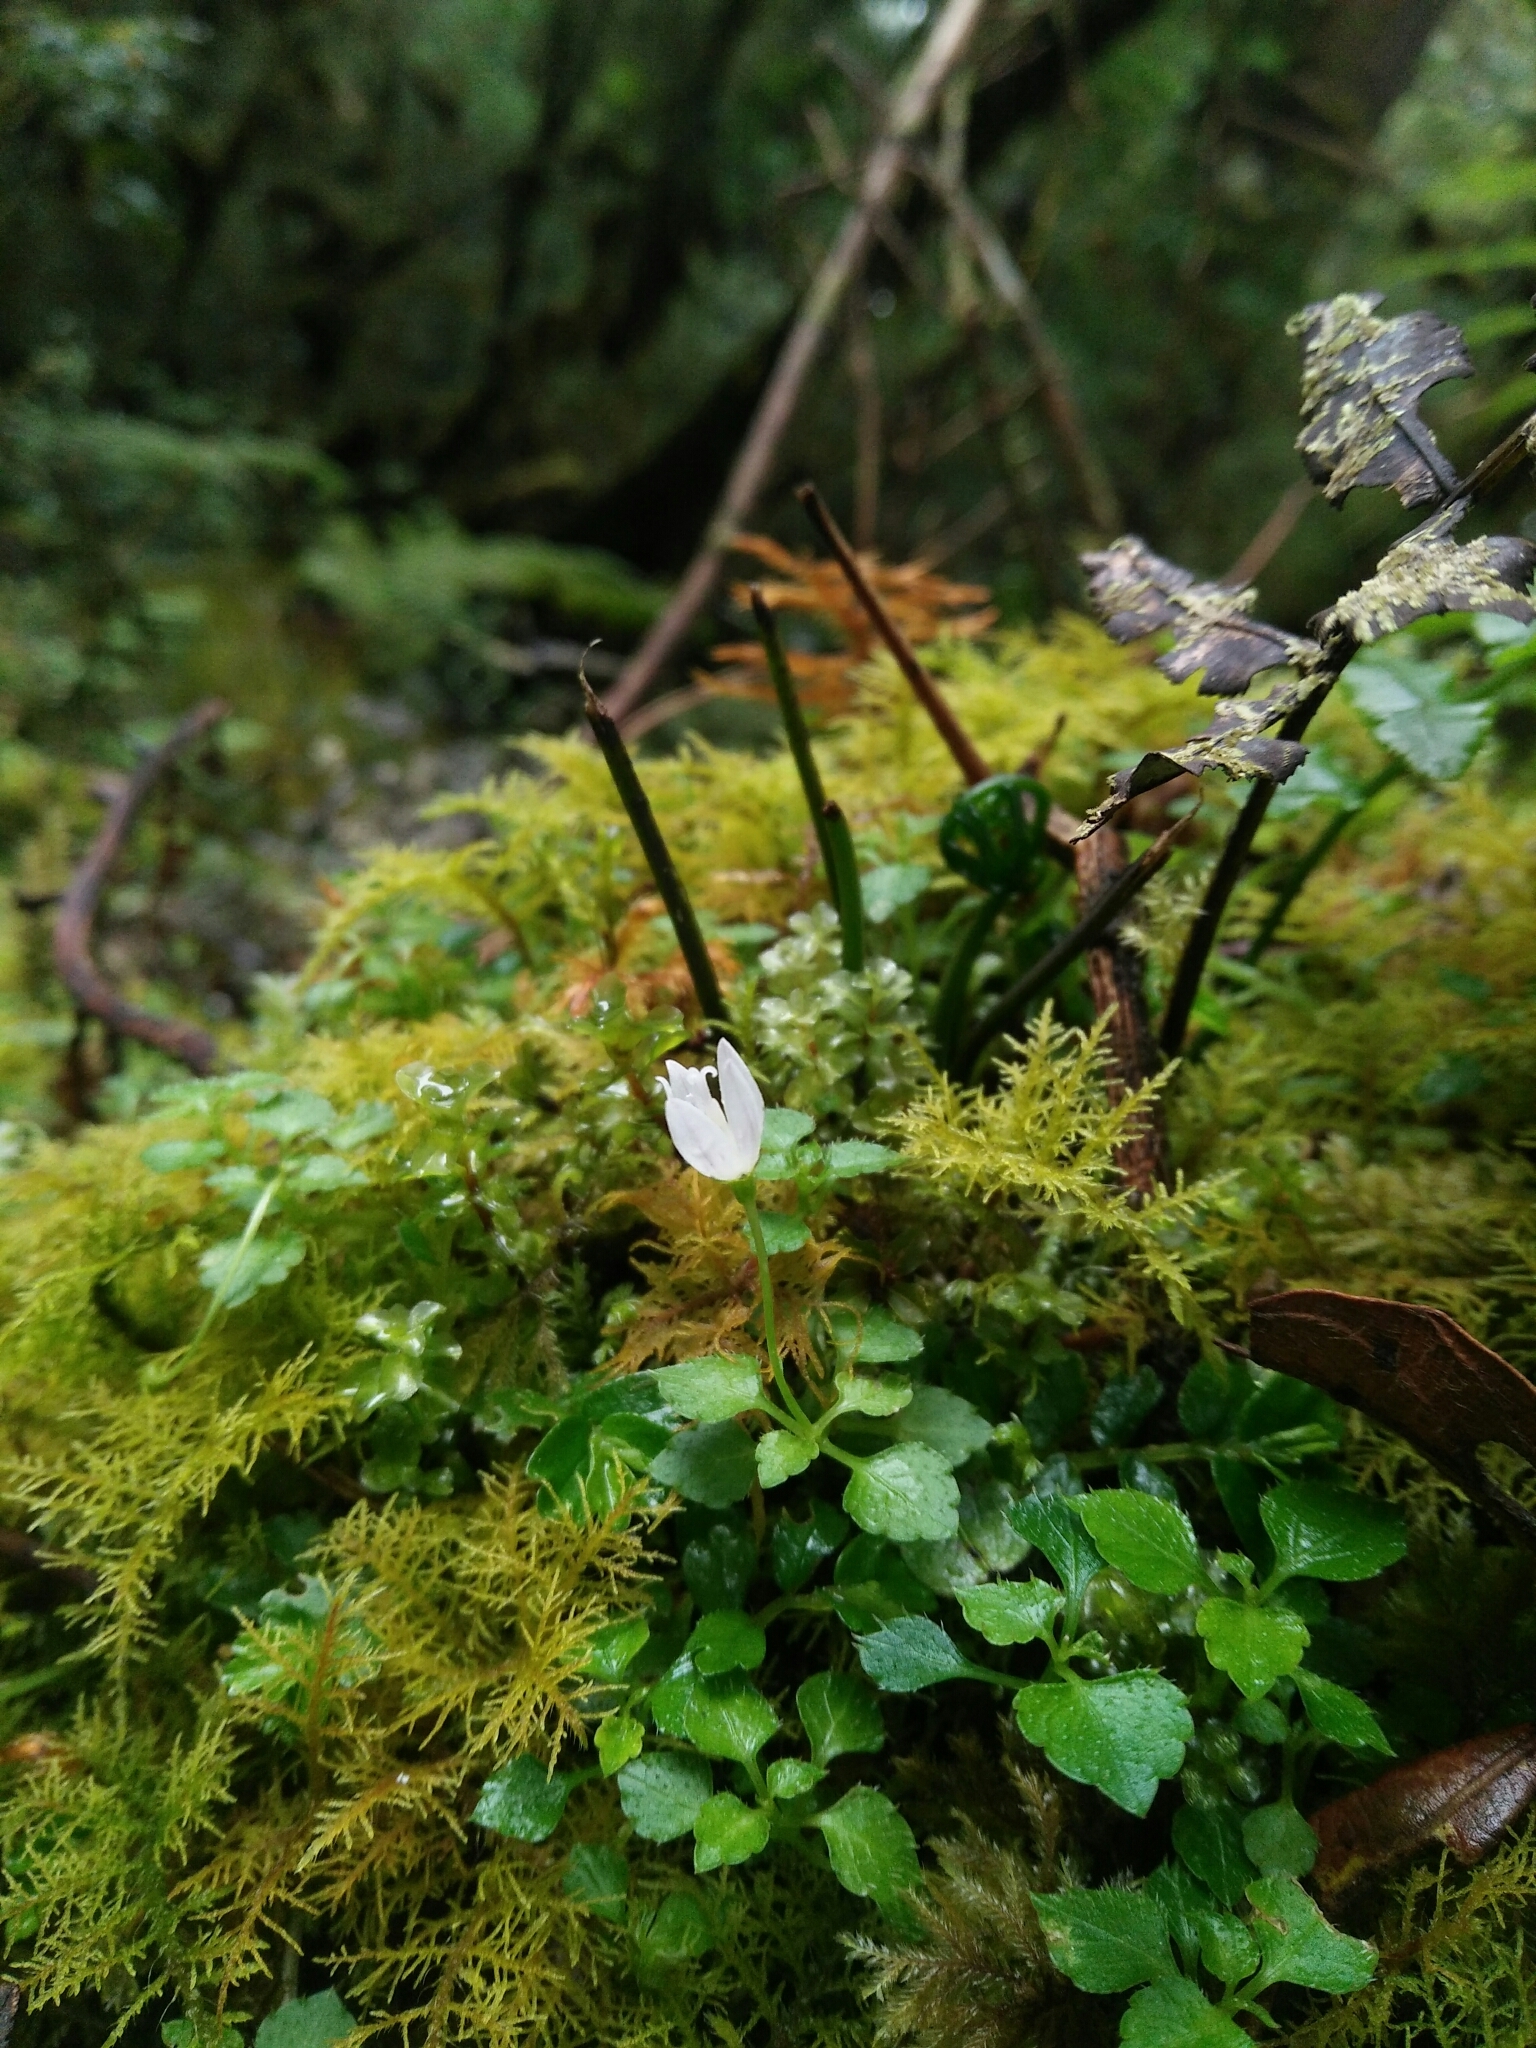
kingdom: Plantae
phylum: Tracheophyta
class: Magnoliopsida
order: Asterales
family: Campanulaceae
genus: Peracarpa
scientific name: Peracarpa carnosa
